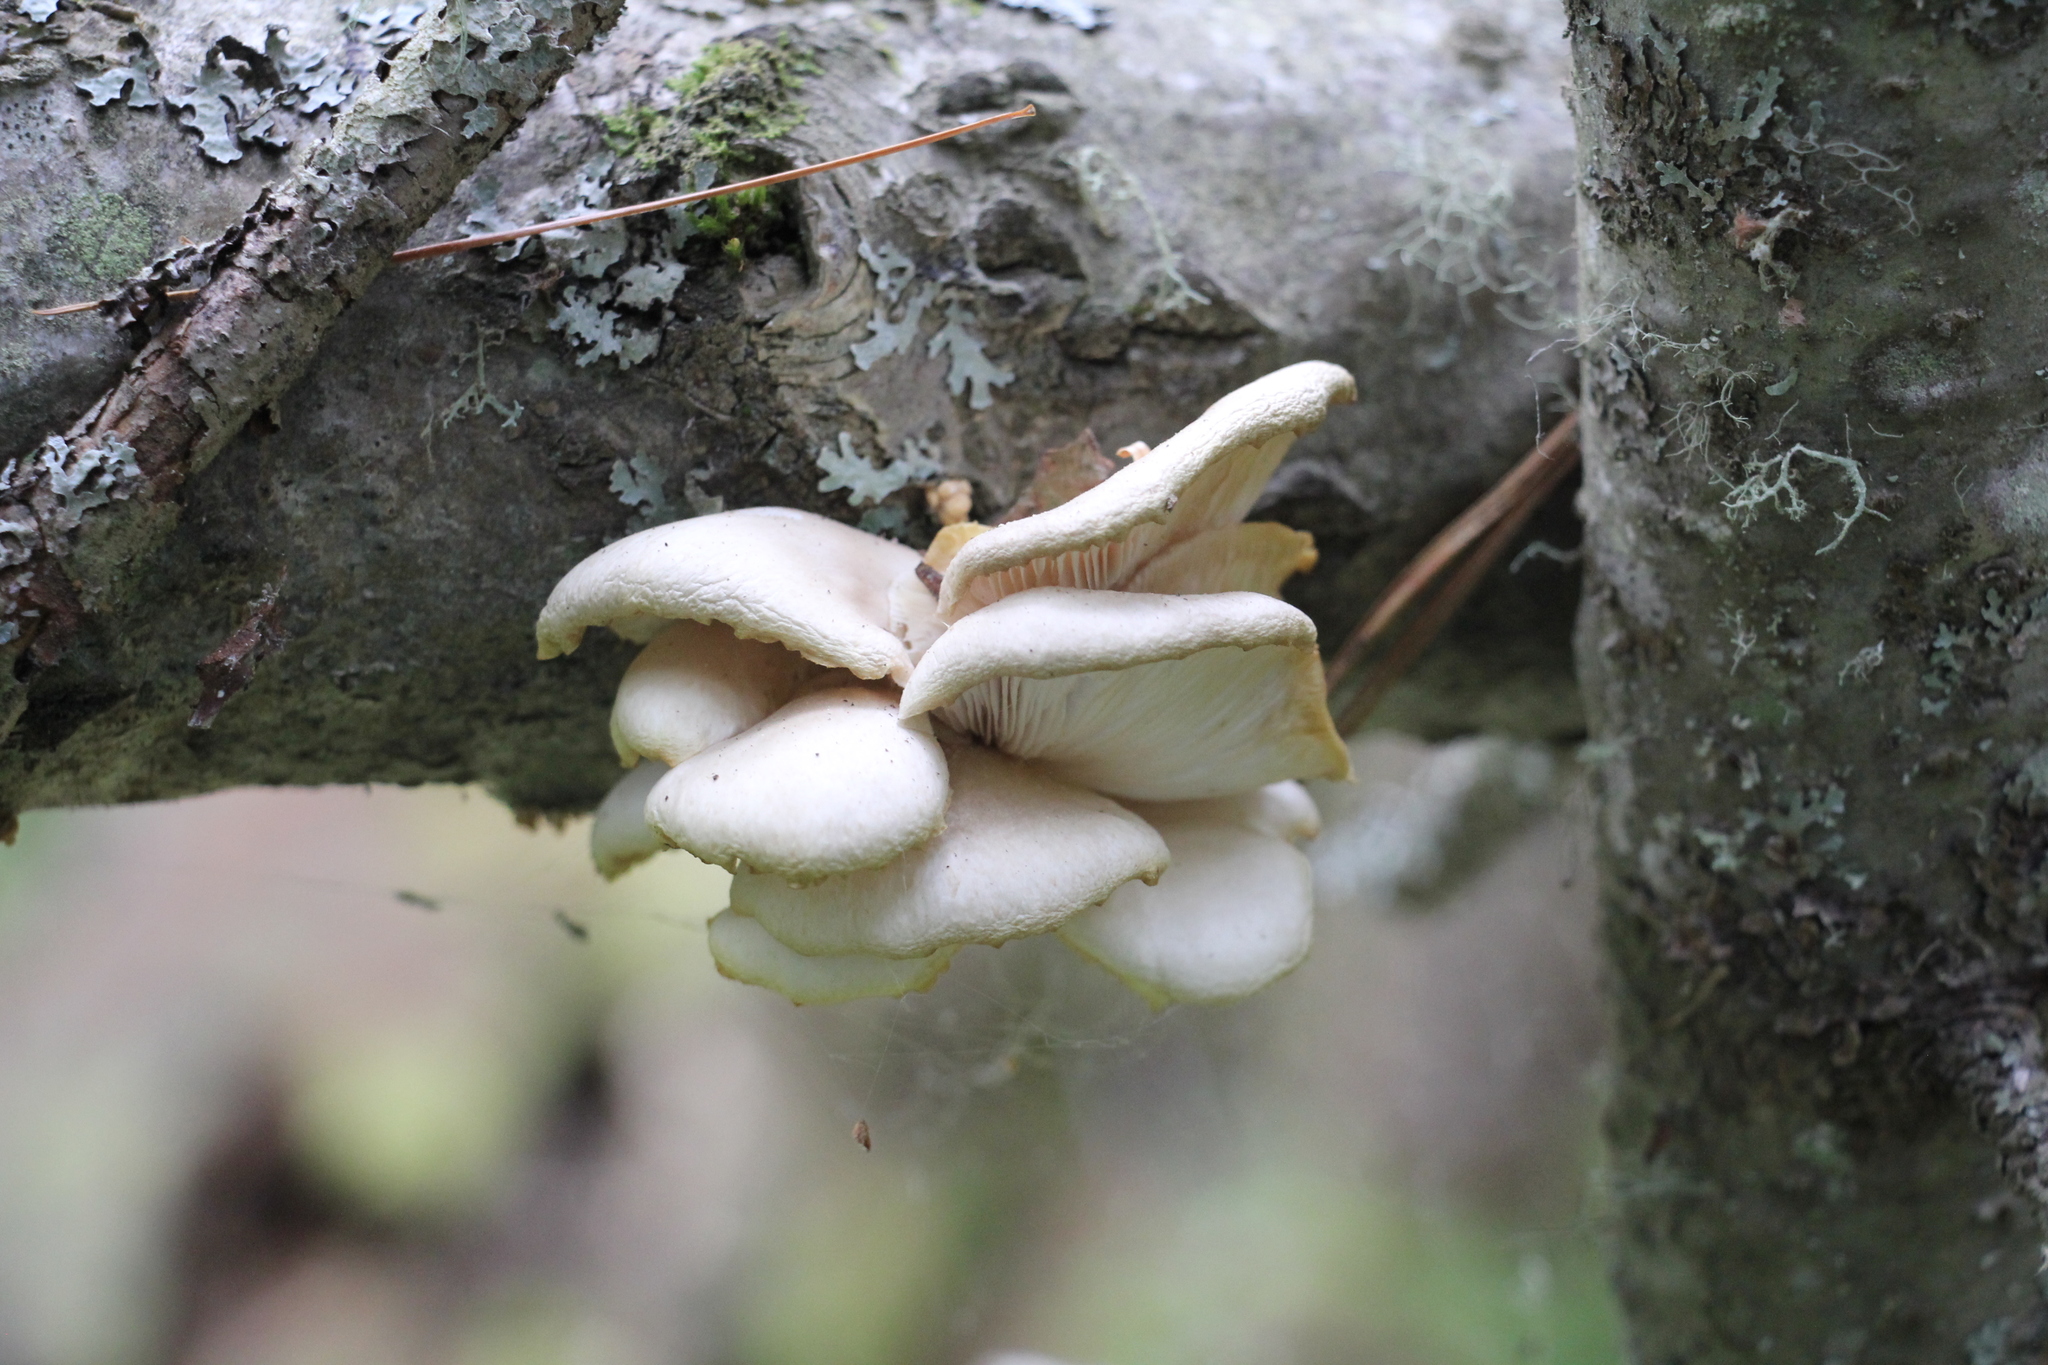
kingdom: Fungi
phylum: Basidiomycota
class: Agaricomycetes
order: Agaricales
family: Pleurotaceae
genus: Pleurotus
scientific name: Pleurotus pulmonarius
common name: Pale oyster
